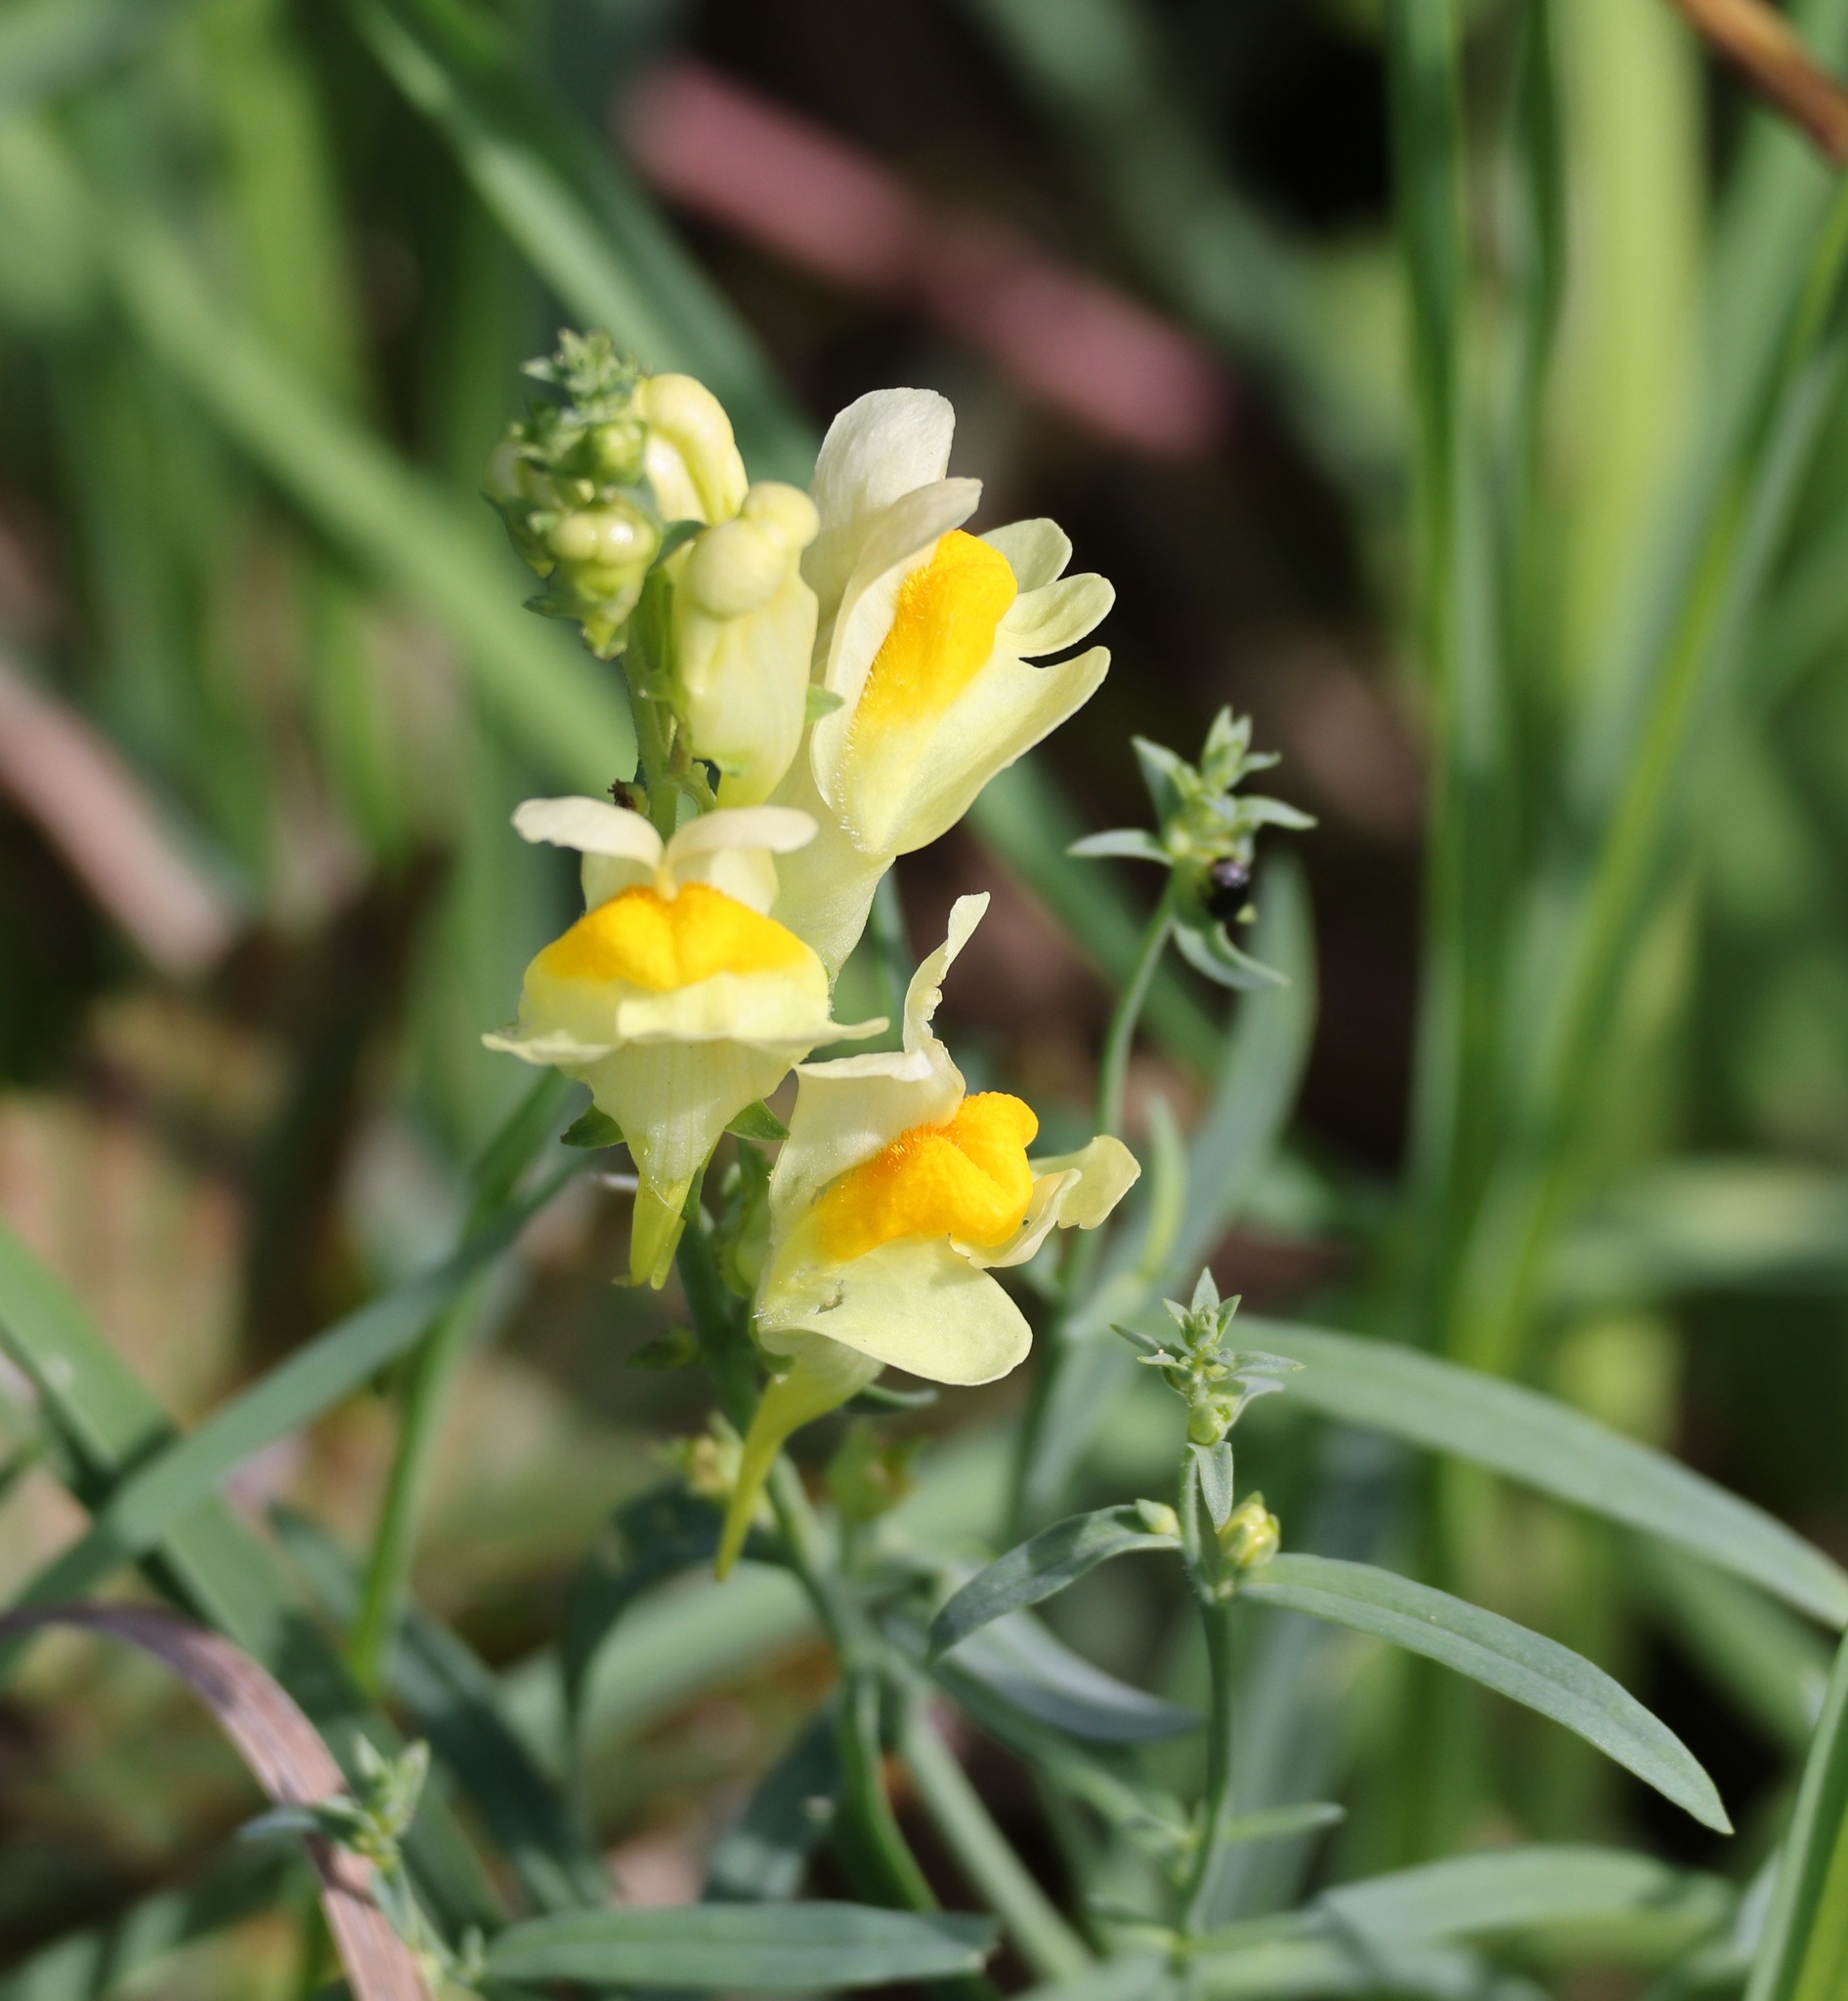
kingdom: Plantae
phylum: Tracheophyta
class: Magnoliopsida
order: Lamiales
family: Plantaginaceae
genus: Linaria
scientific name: Linaria vulgaris
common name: Butter and eggs
